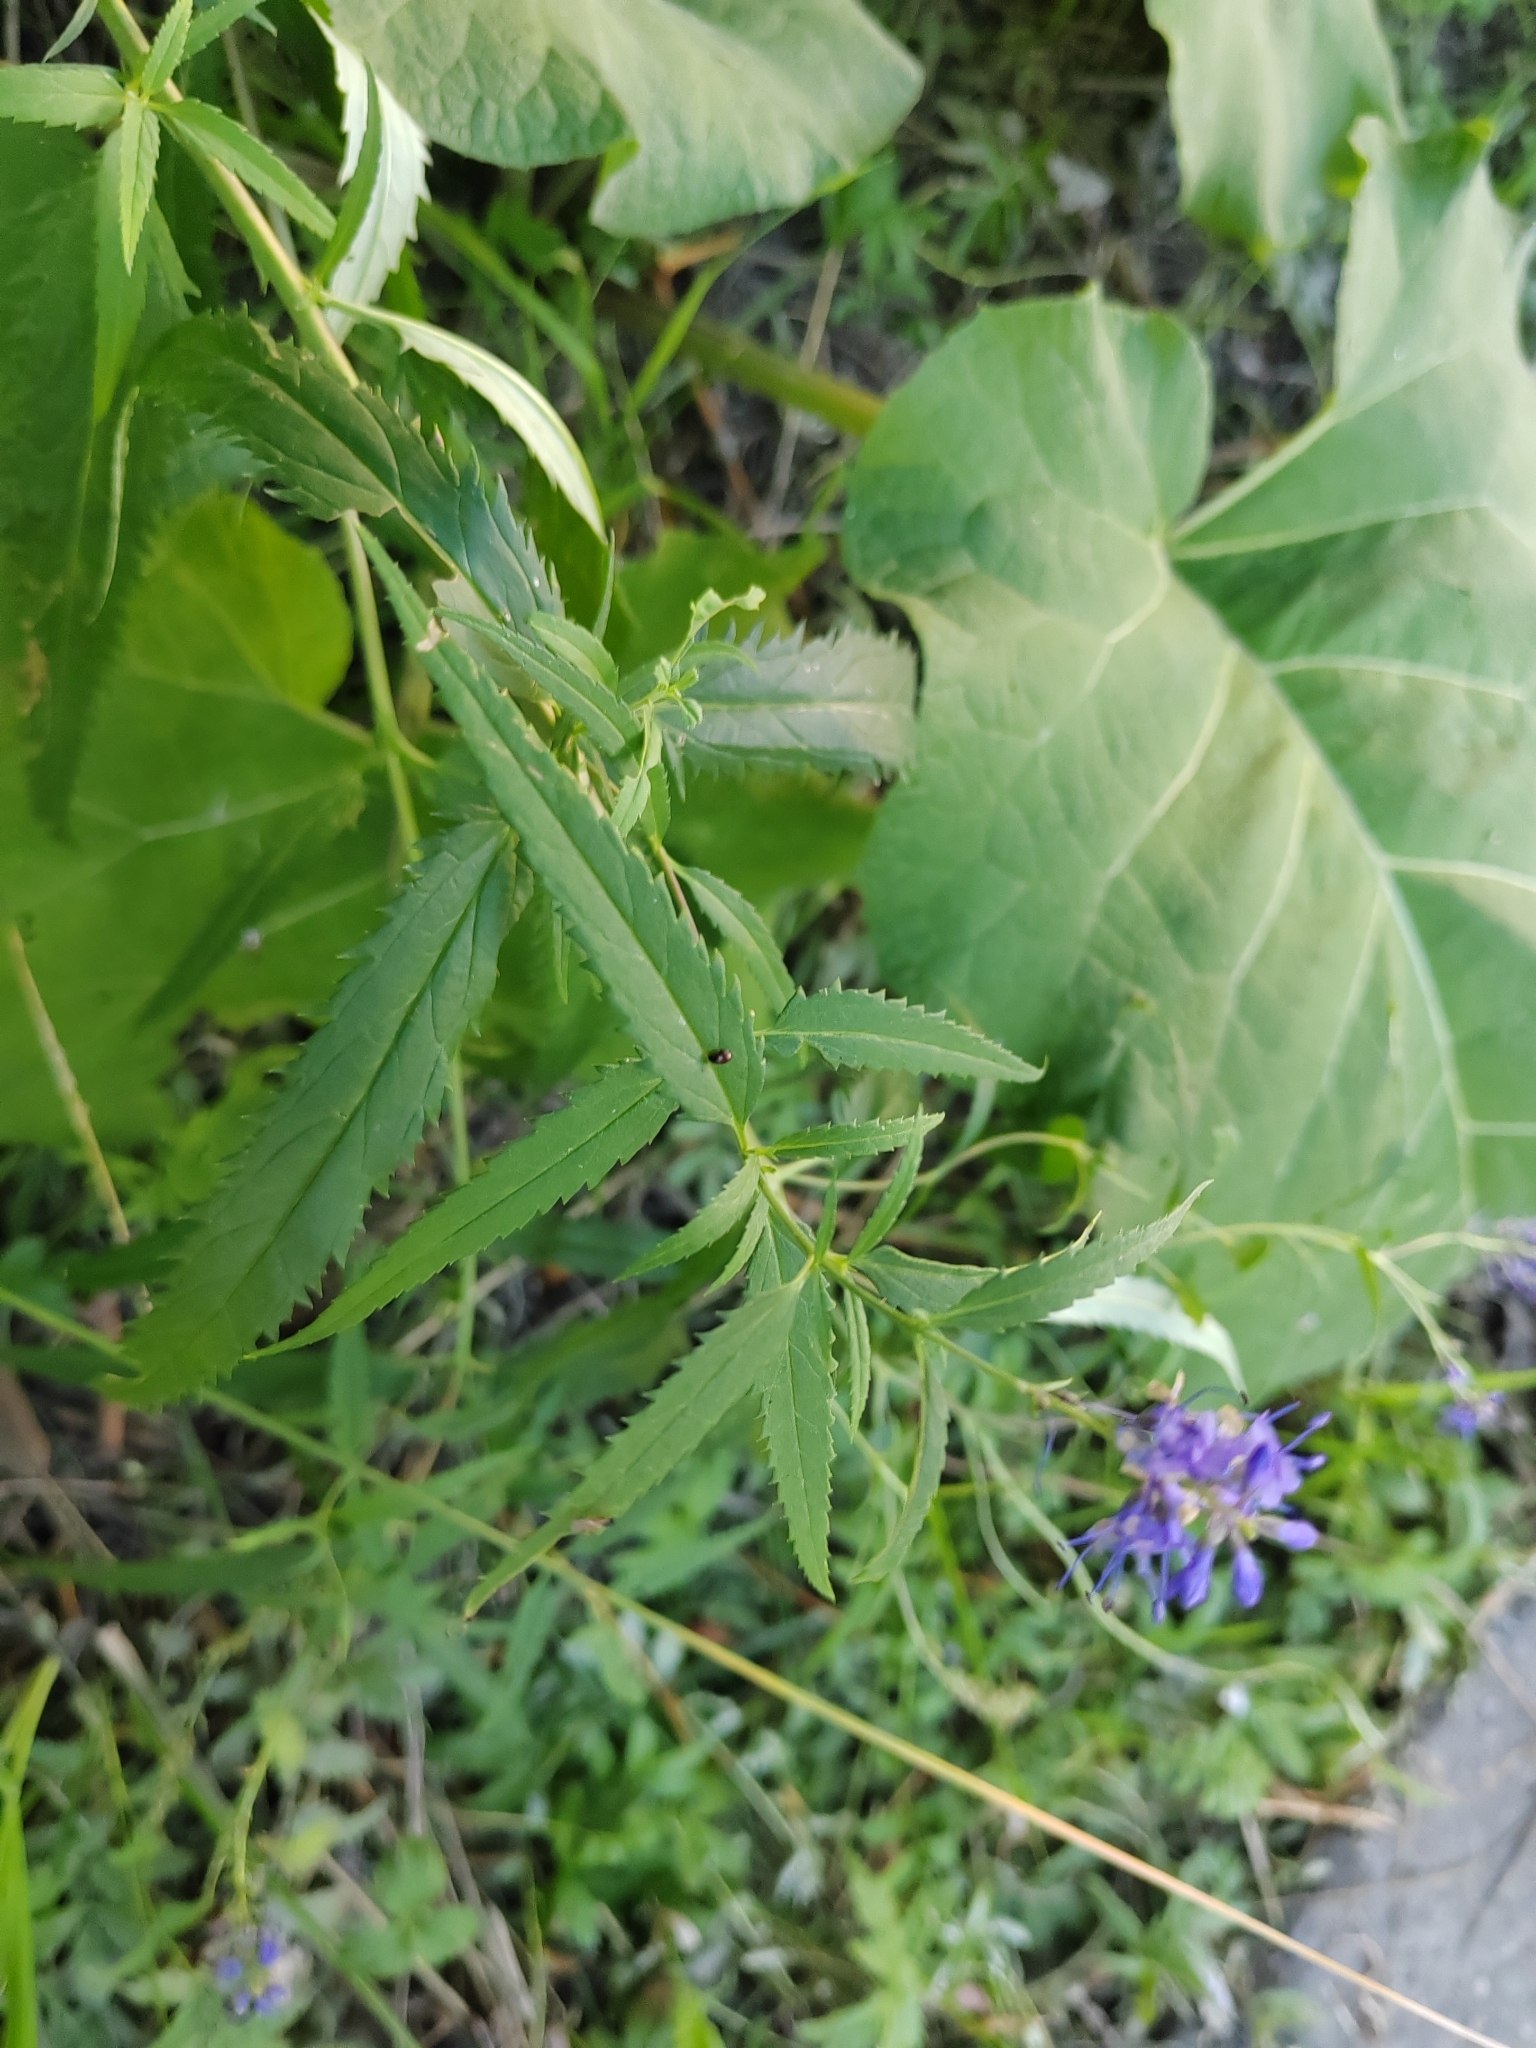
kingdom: Plantae
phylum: Tracheophyta
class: Magnoliopsida
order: Lamiales
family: Plantaginaceae
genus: Veronica
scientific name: Veronica longifolia
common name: Garden speedwell
